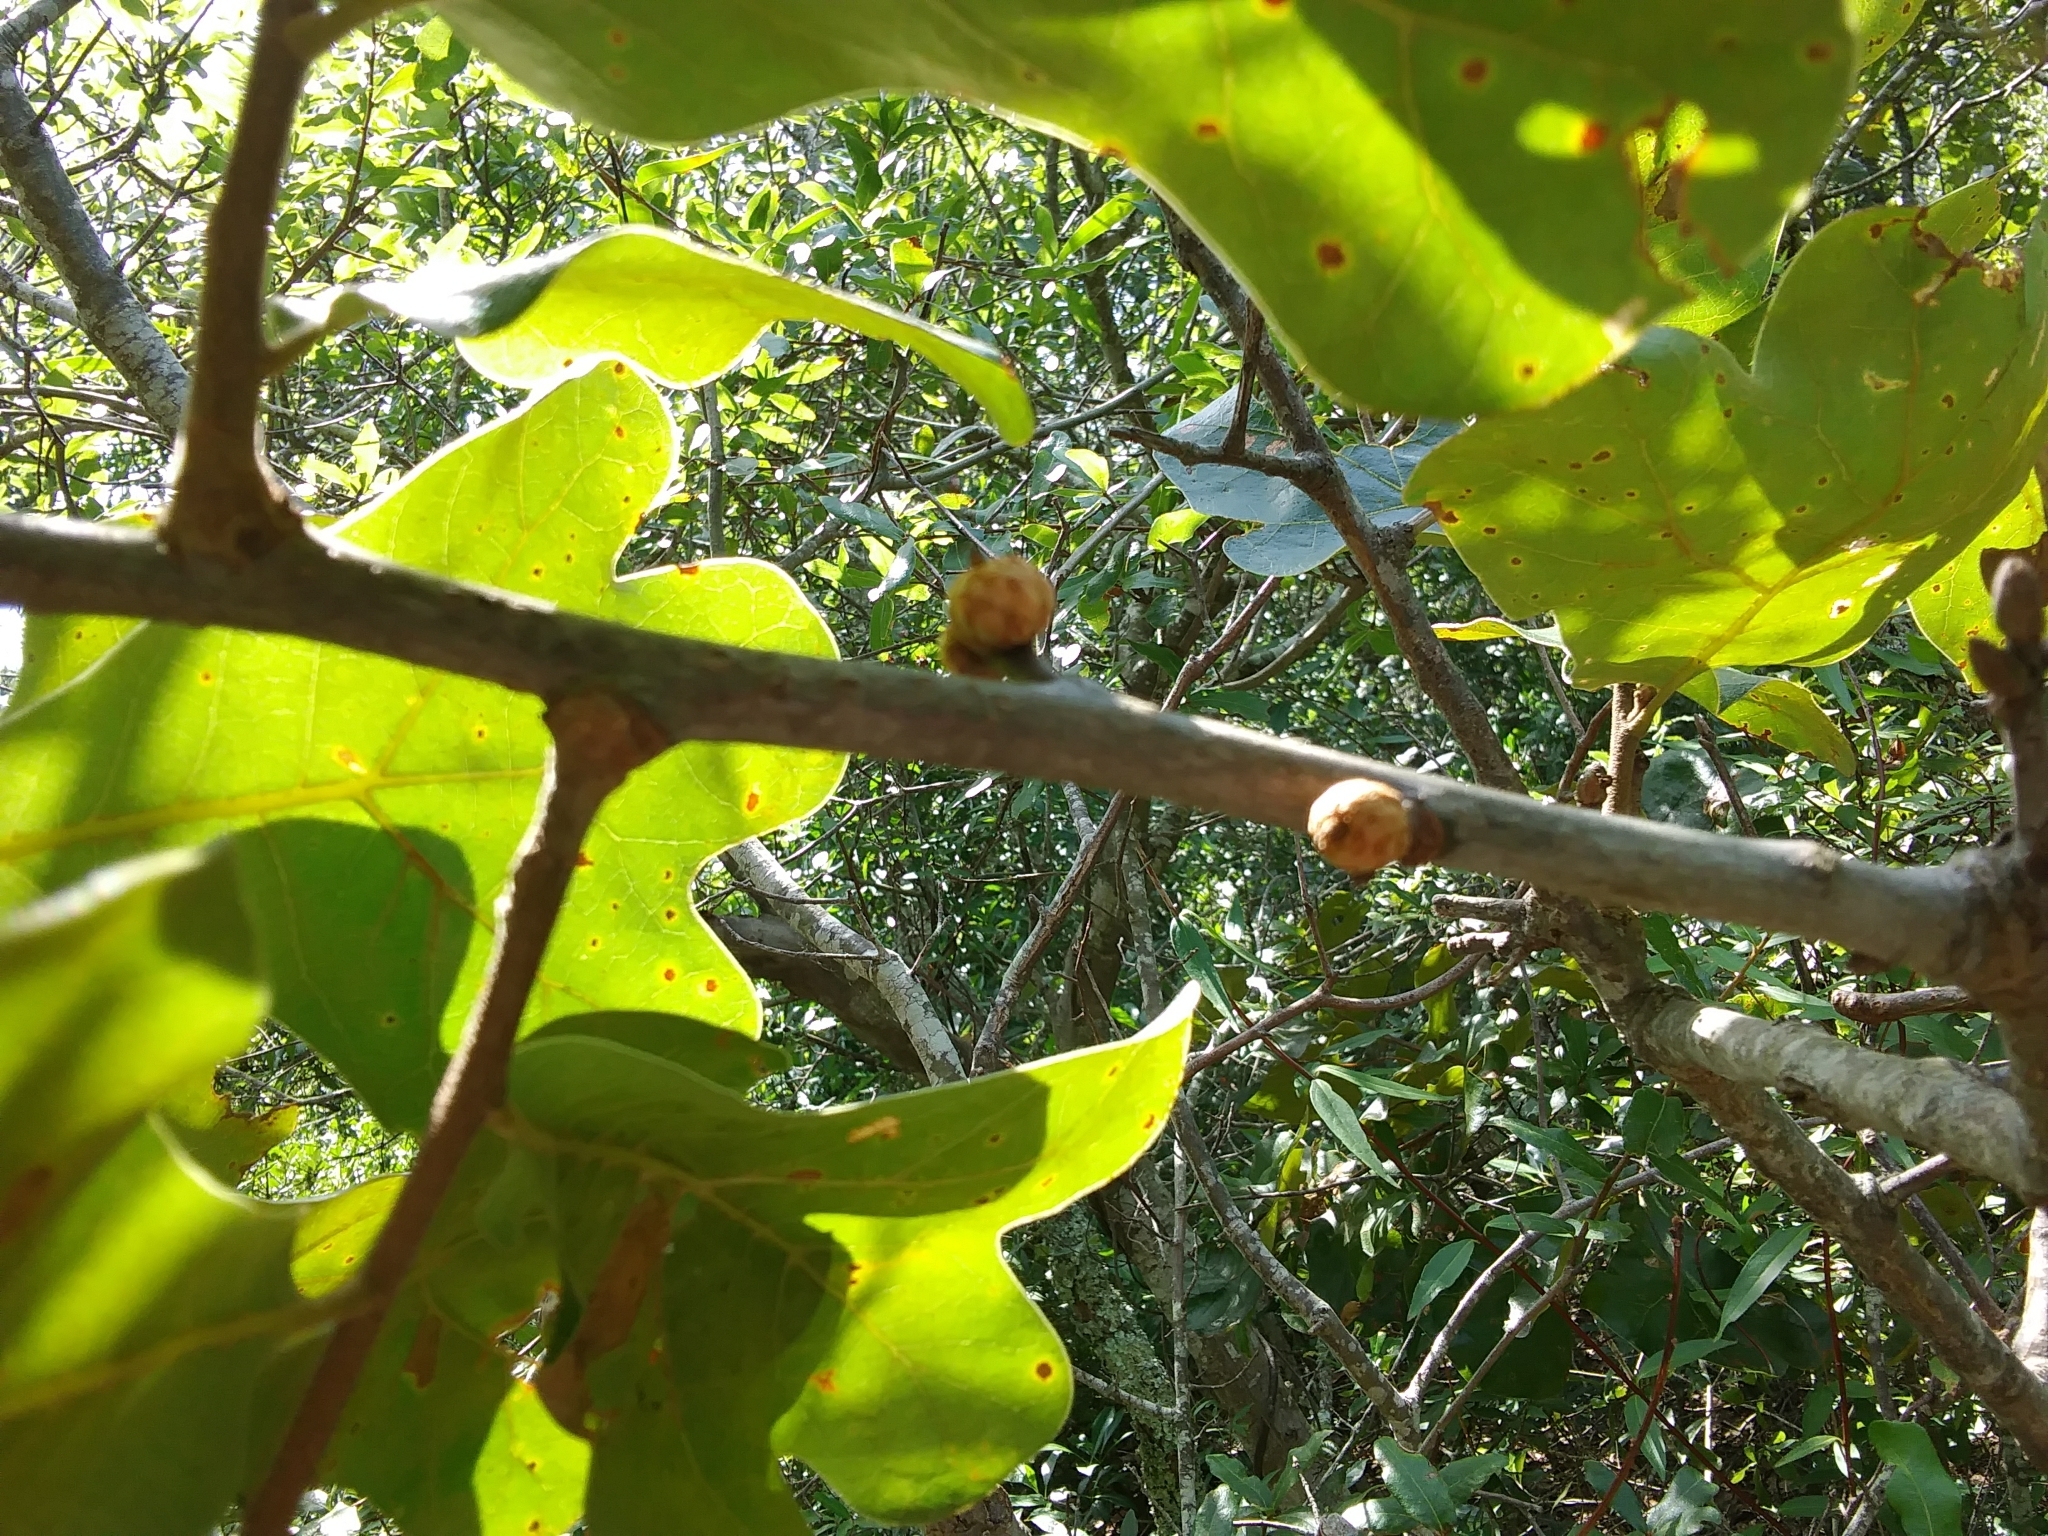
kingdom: Plantae
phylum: Tracheophyta
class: Magnoliopsida
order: Fagales
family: Fagaceae
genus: Quercus
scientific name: Quercus marilandica
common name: Blackjack oak
